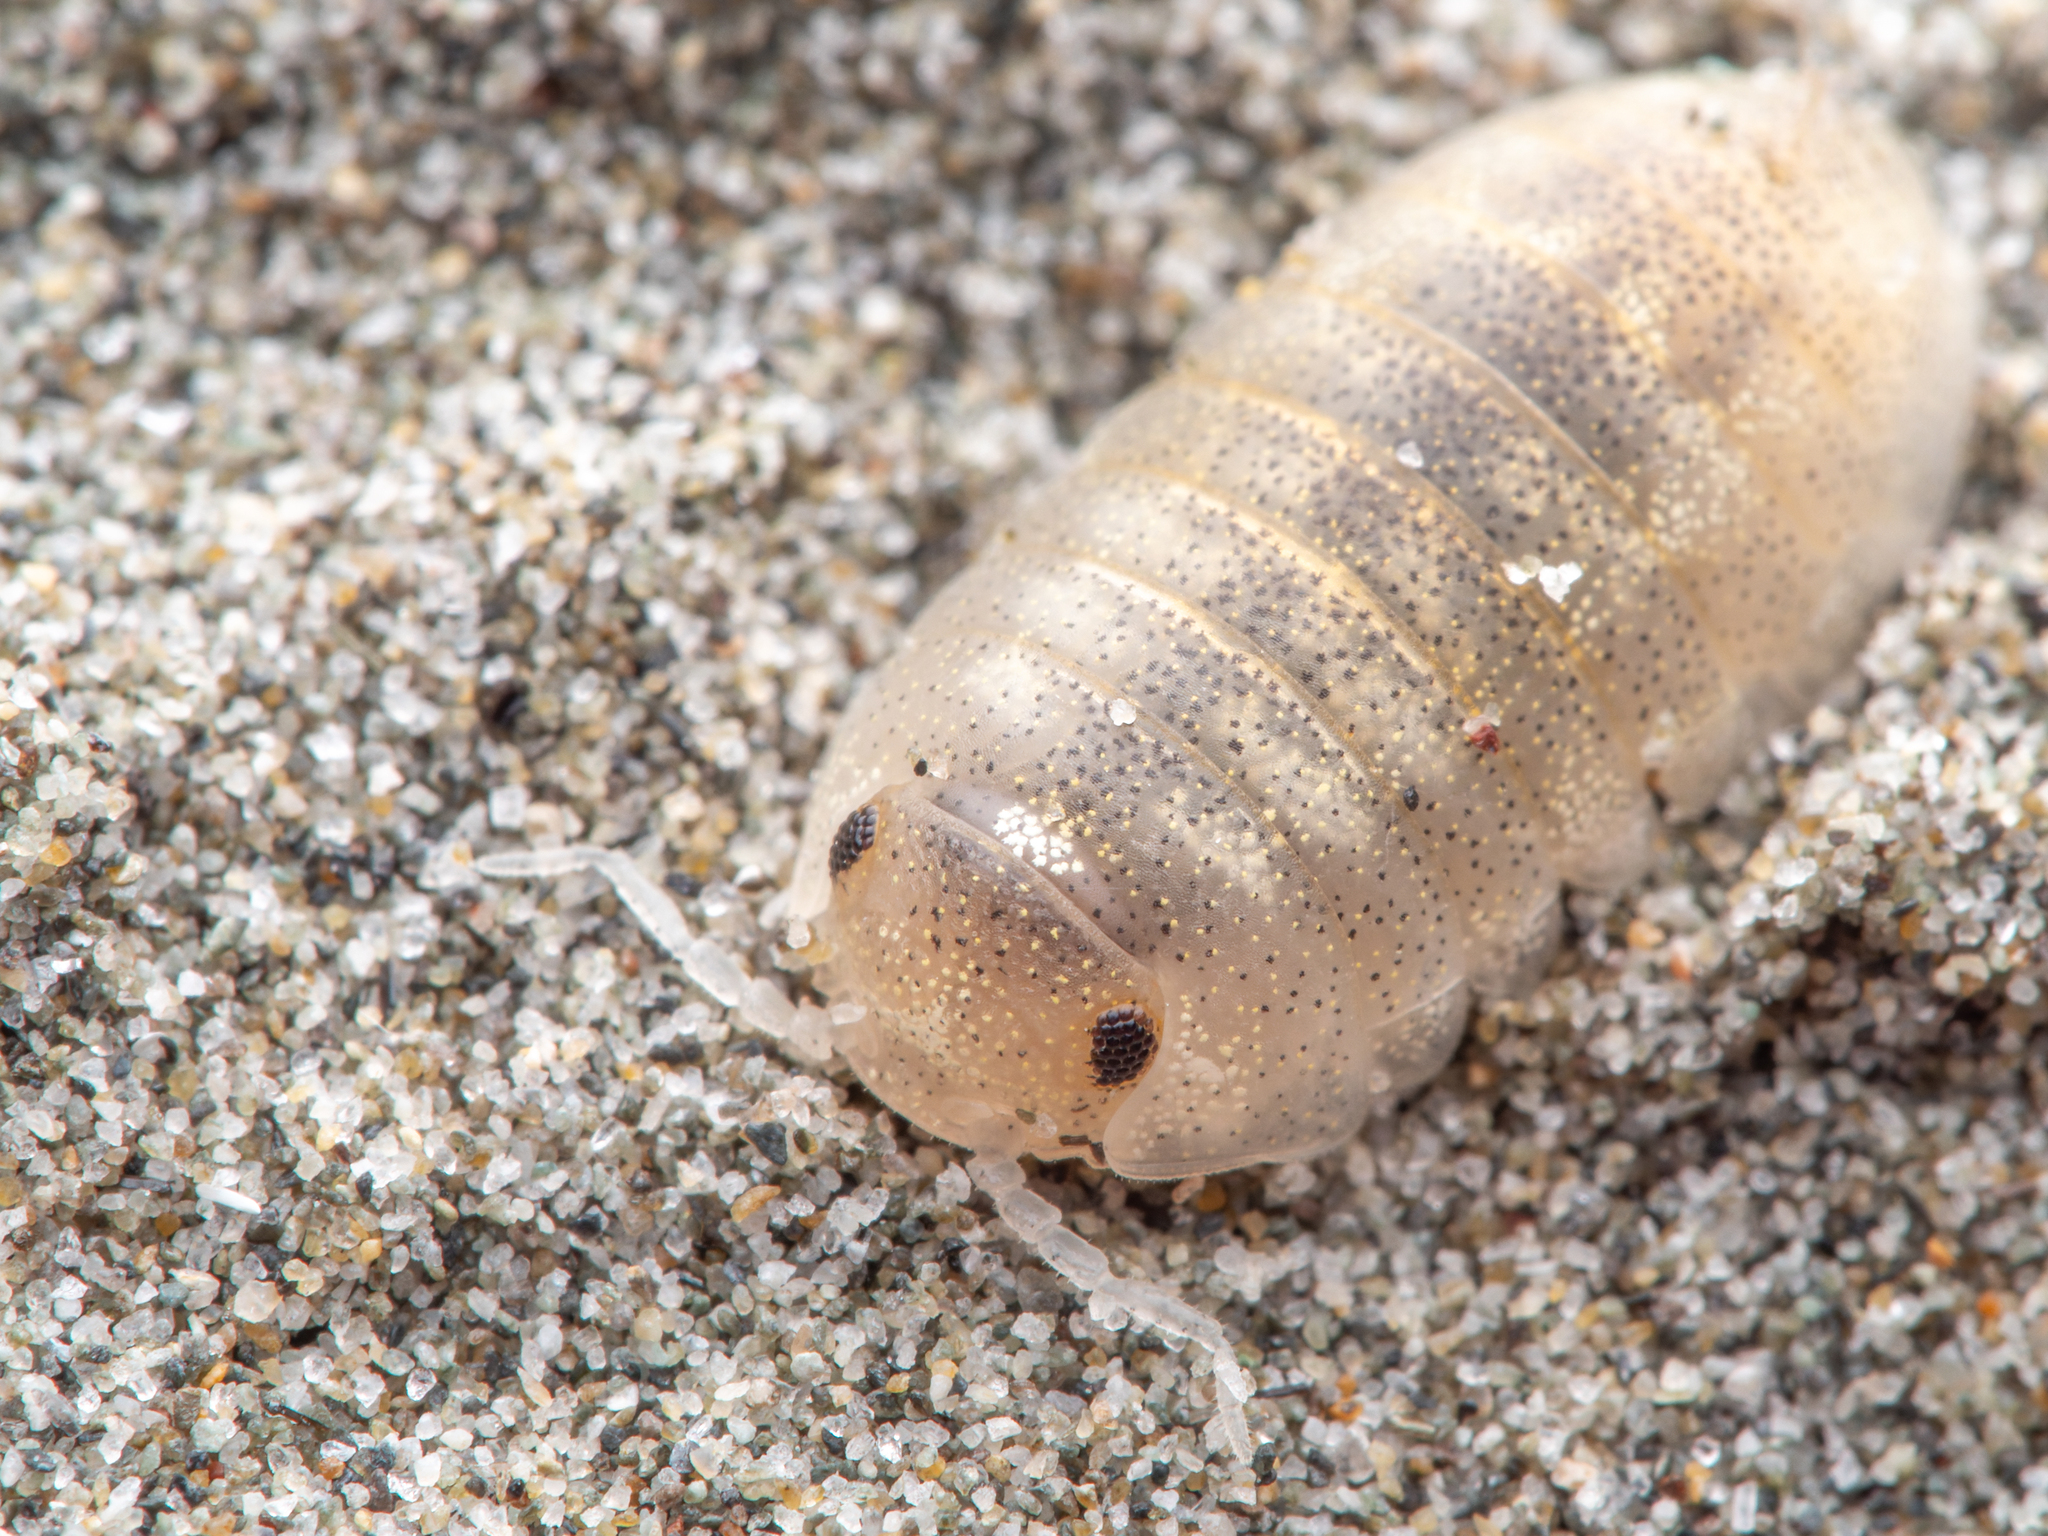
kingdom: Animalia
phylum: Arthropoda
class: Malacostraca
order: Isopoda
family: Tylidae
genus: Tylos
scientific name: Tylos neozelanicus
